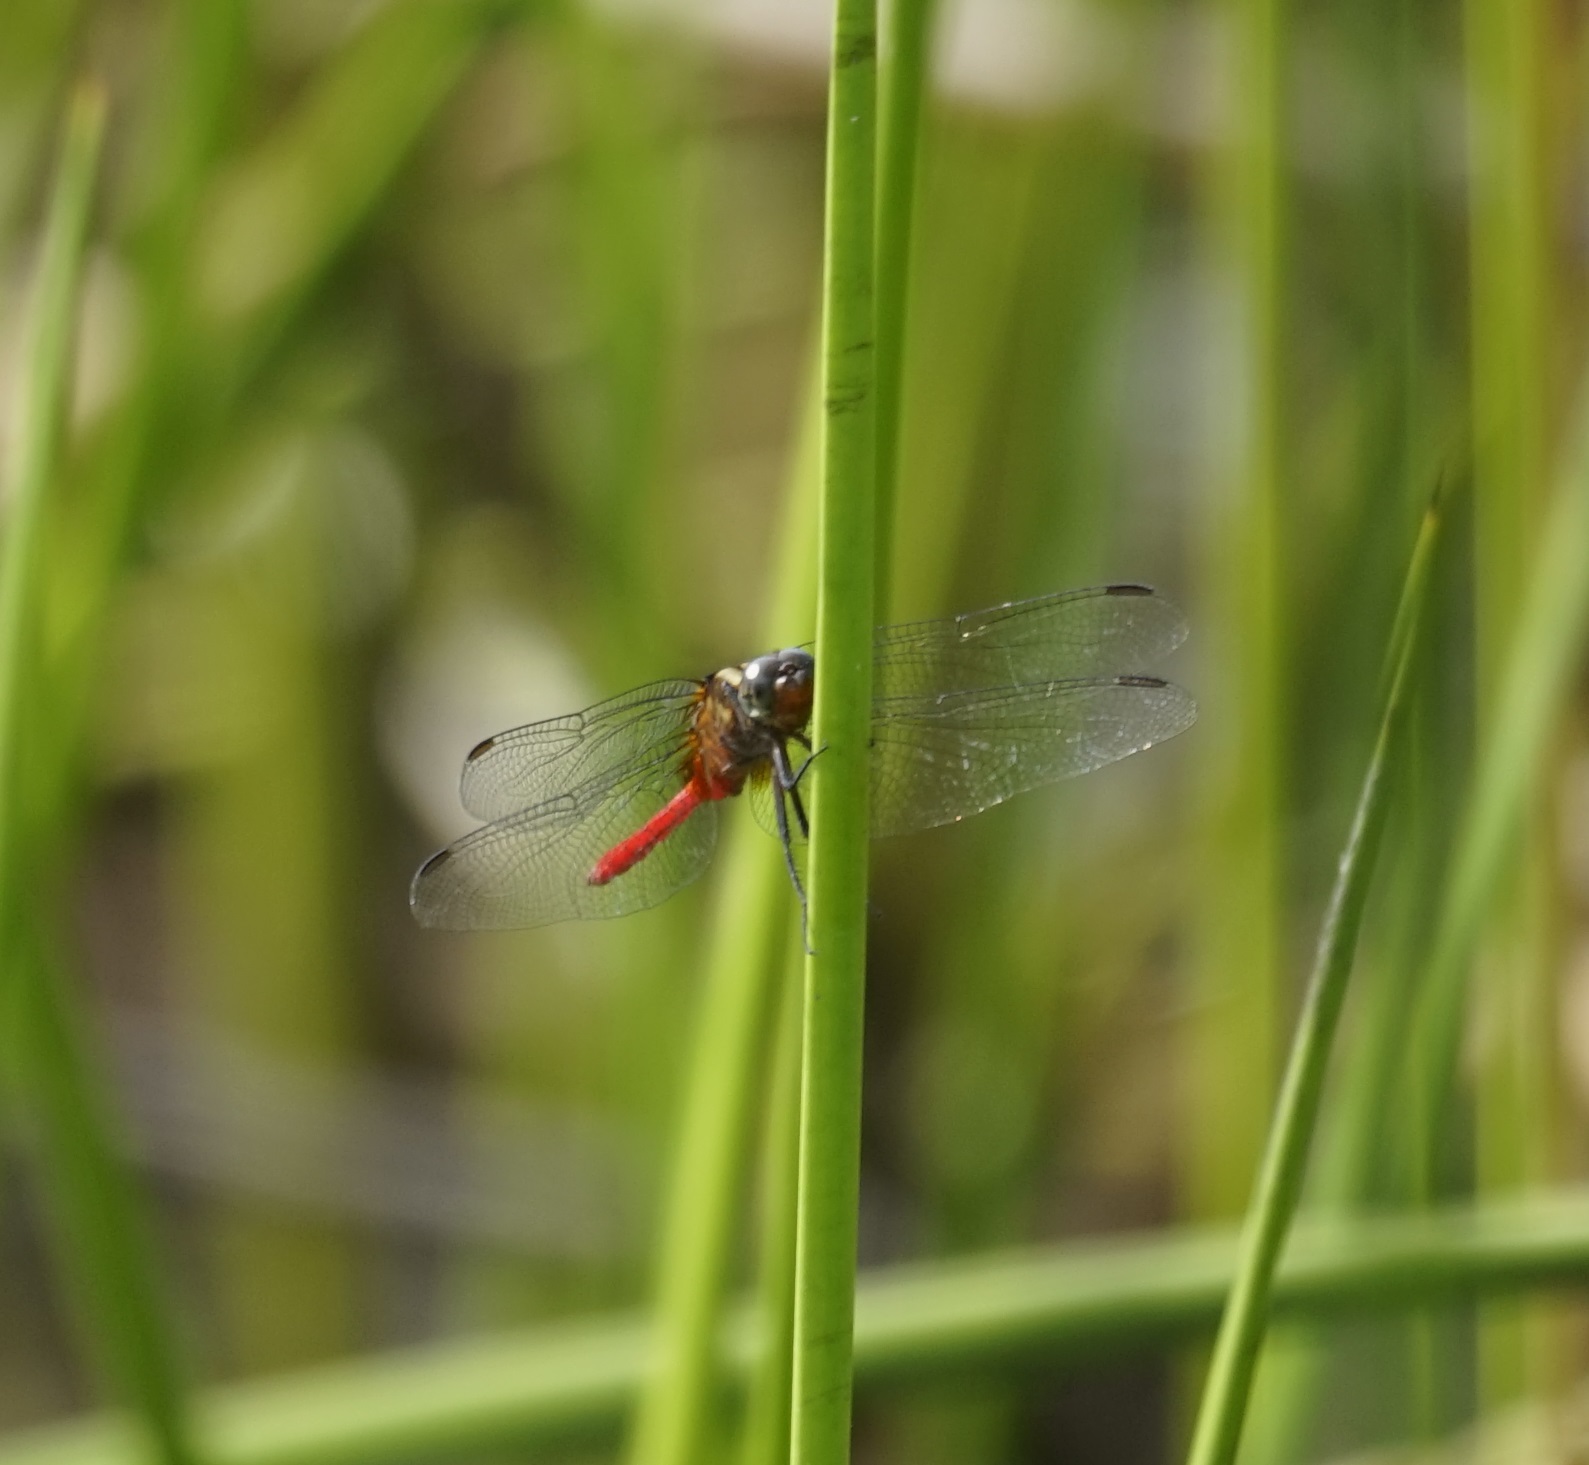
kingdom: Animalia
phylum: Arthropoda
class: Insecta
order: Odonata
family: Libellulidae
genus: Orthetrum
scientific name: Orthetrum villosovittatum
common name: Firery skimmer
